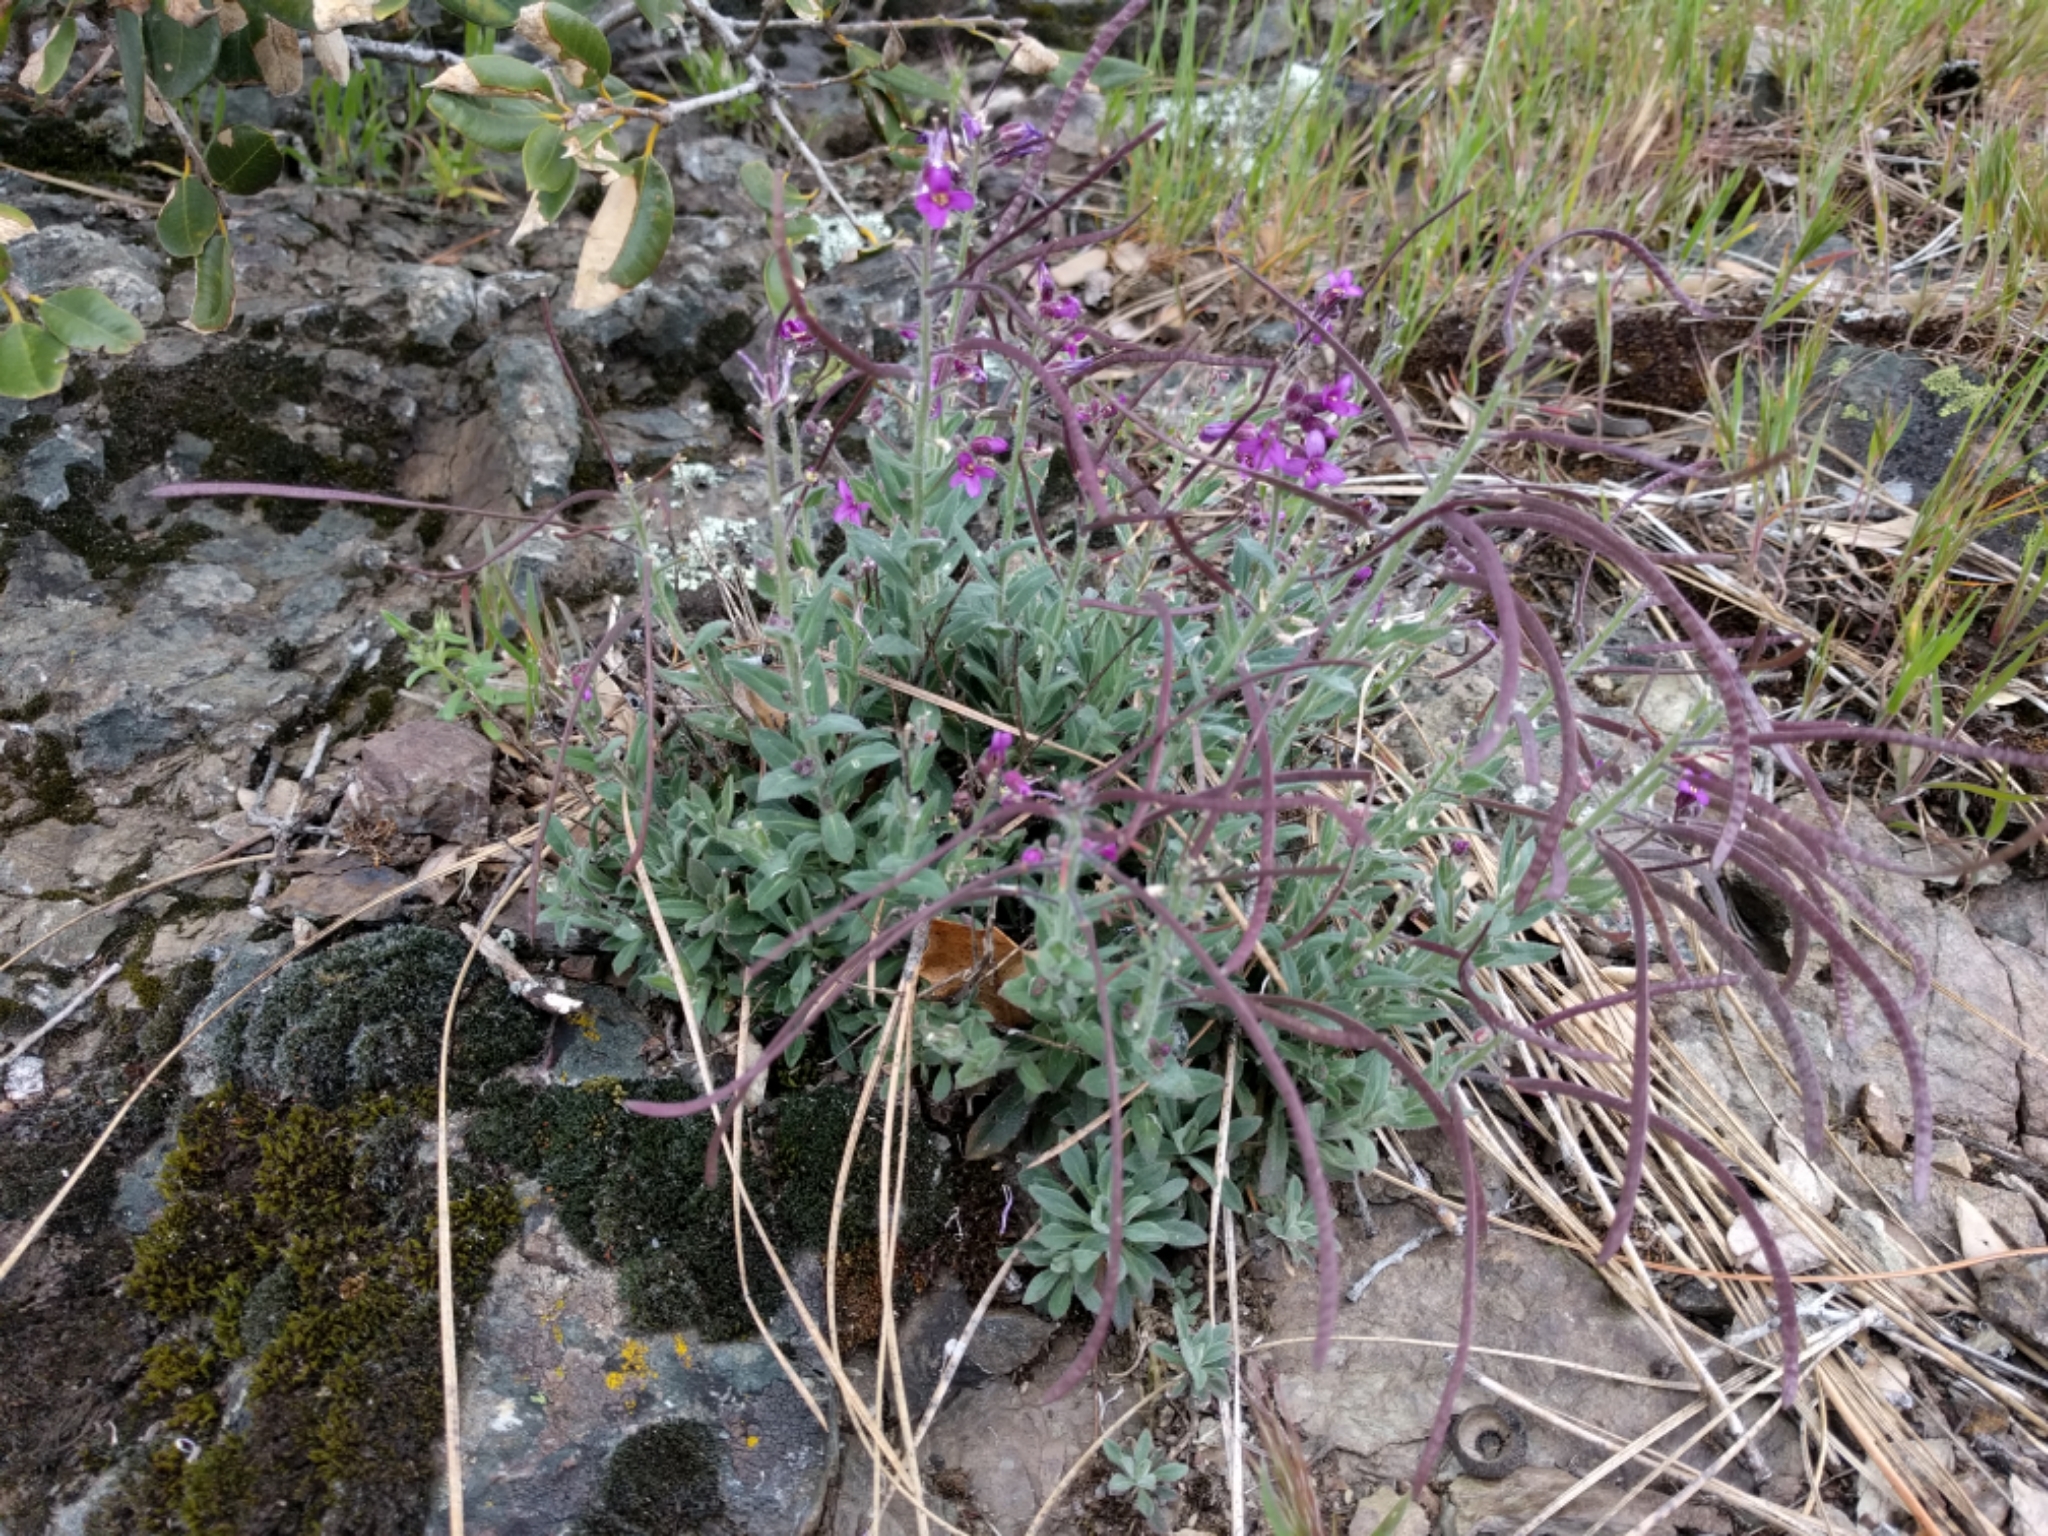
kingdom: Plantae
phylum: Tracheophyta
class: Magnoliopsida
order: Brassicales
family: Brassicaceae
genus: Boechera
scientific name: Boechera breweri
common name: Brewer's rockcress
